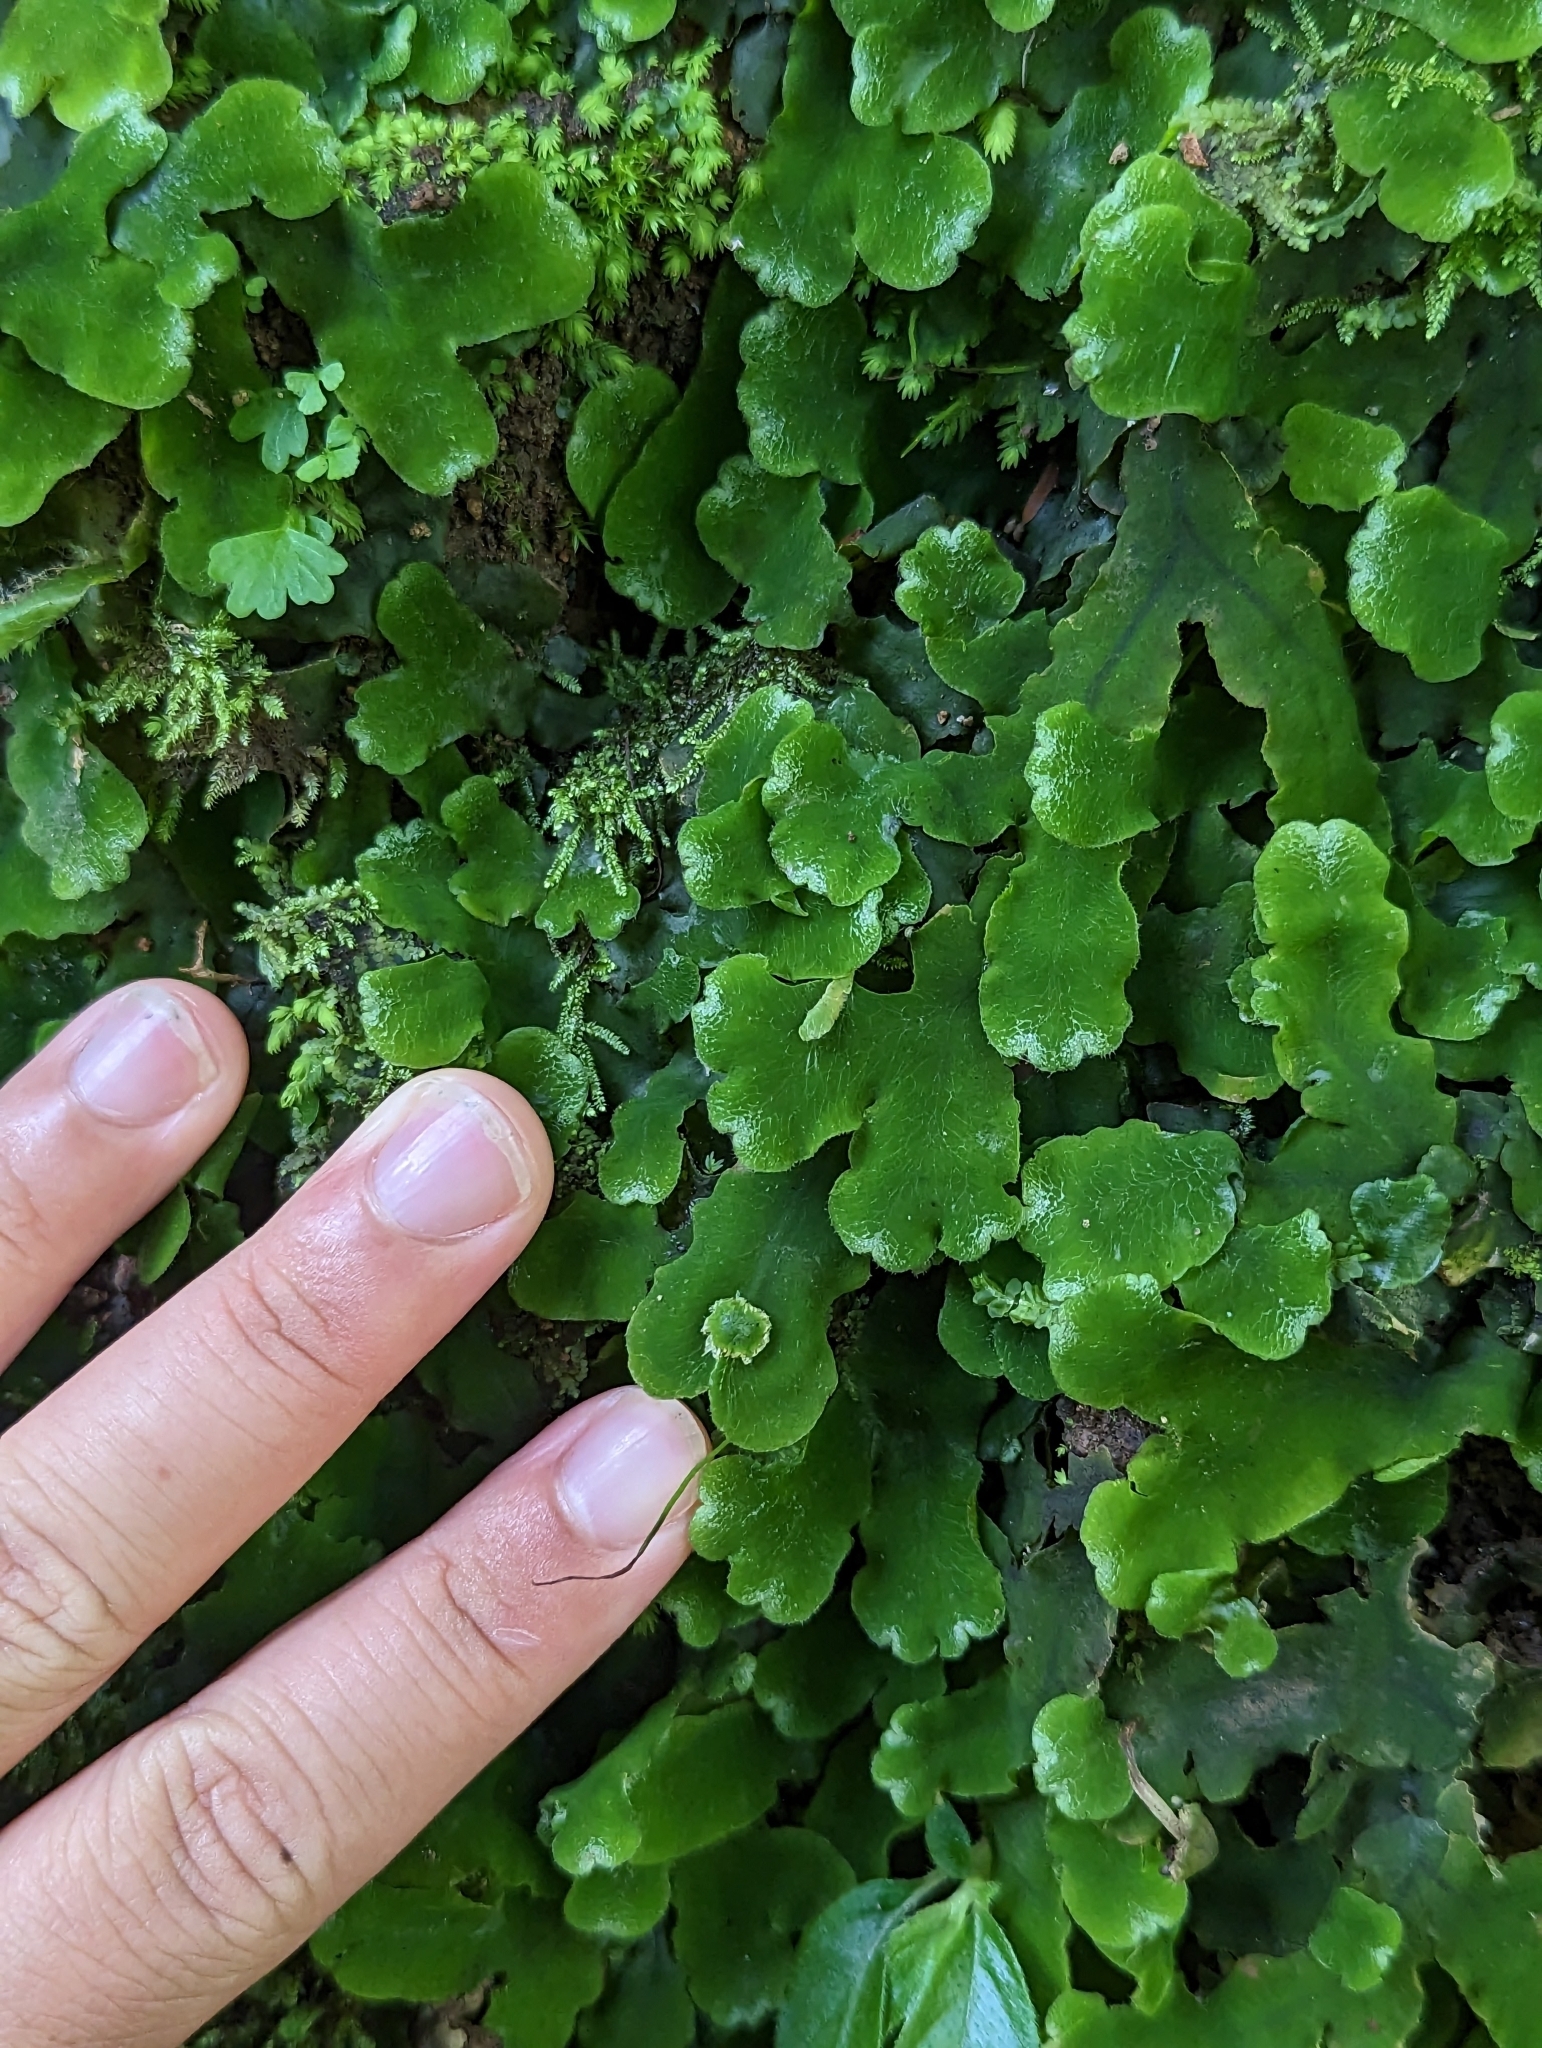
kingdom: Plantae
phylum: Marchantiophyta
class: Marchantiopsida
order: Marchantiales
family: Dumortieraceae
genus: Dumortiera
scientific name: Dumortiera hirsuta
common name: Dumortier's liverwort
